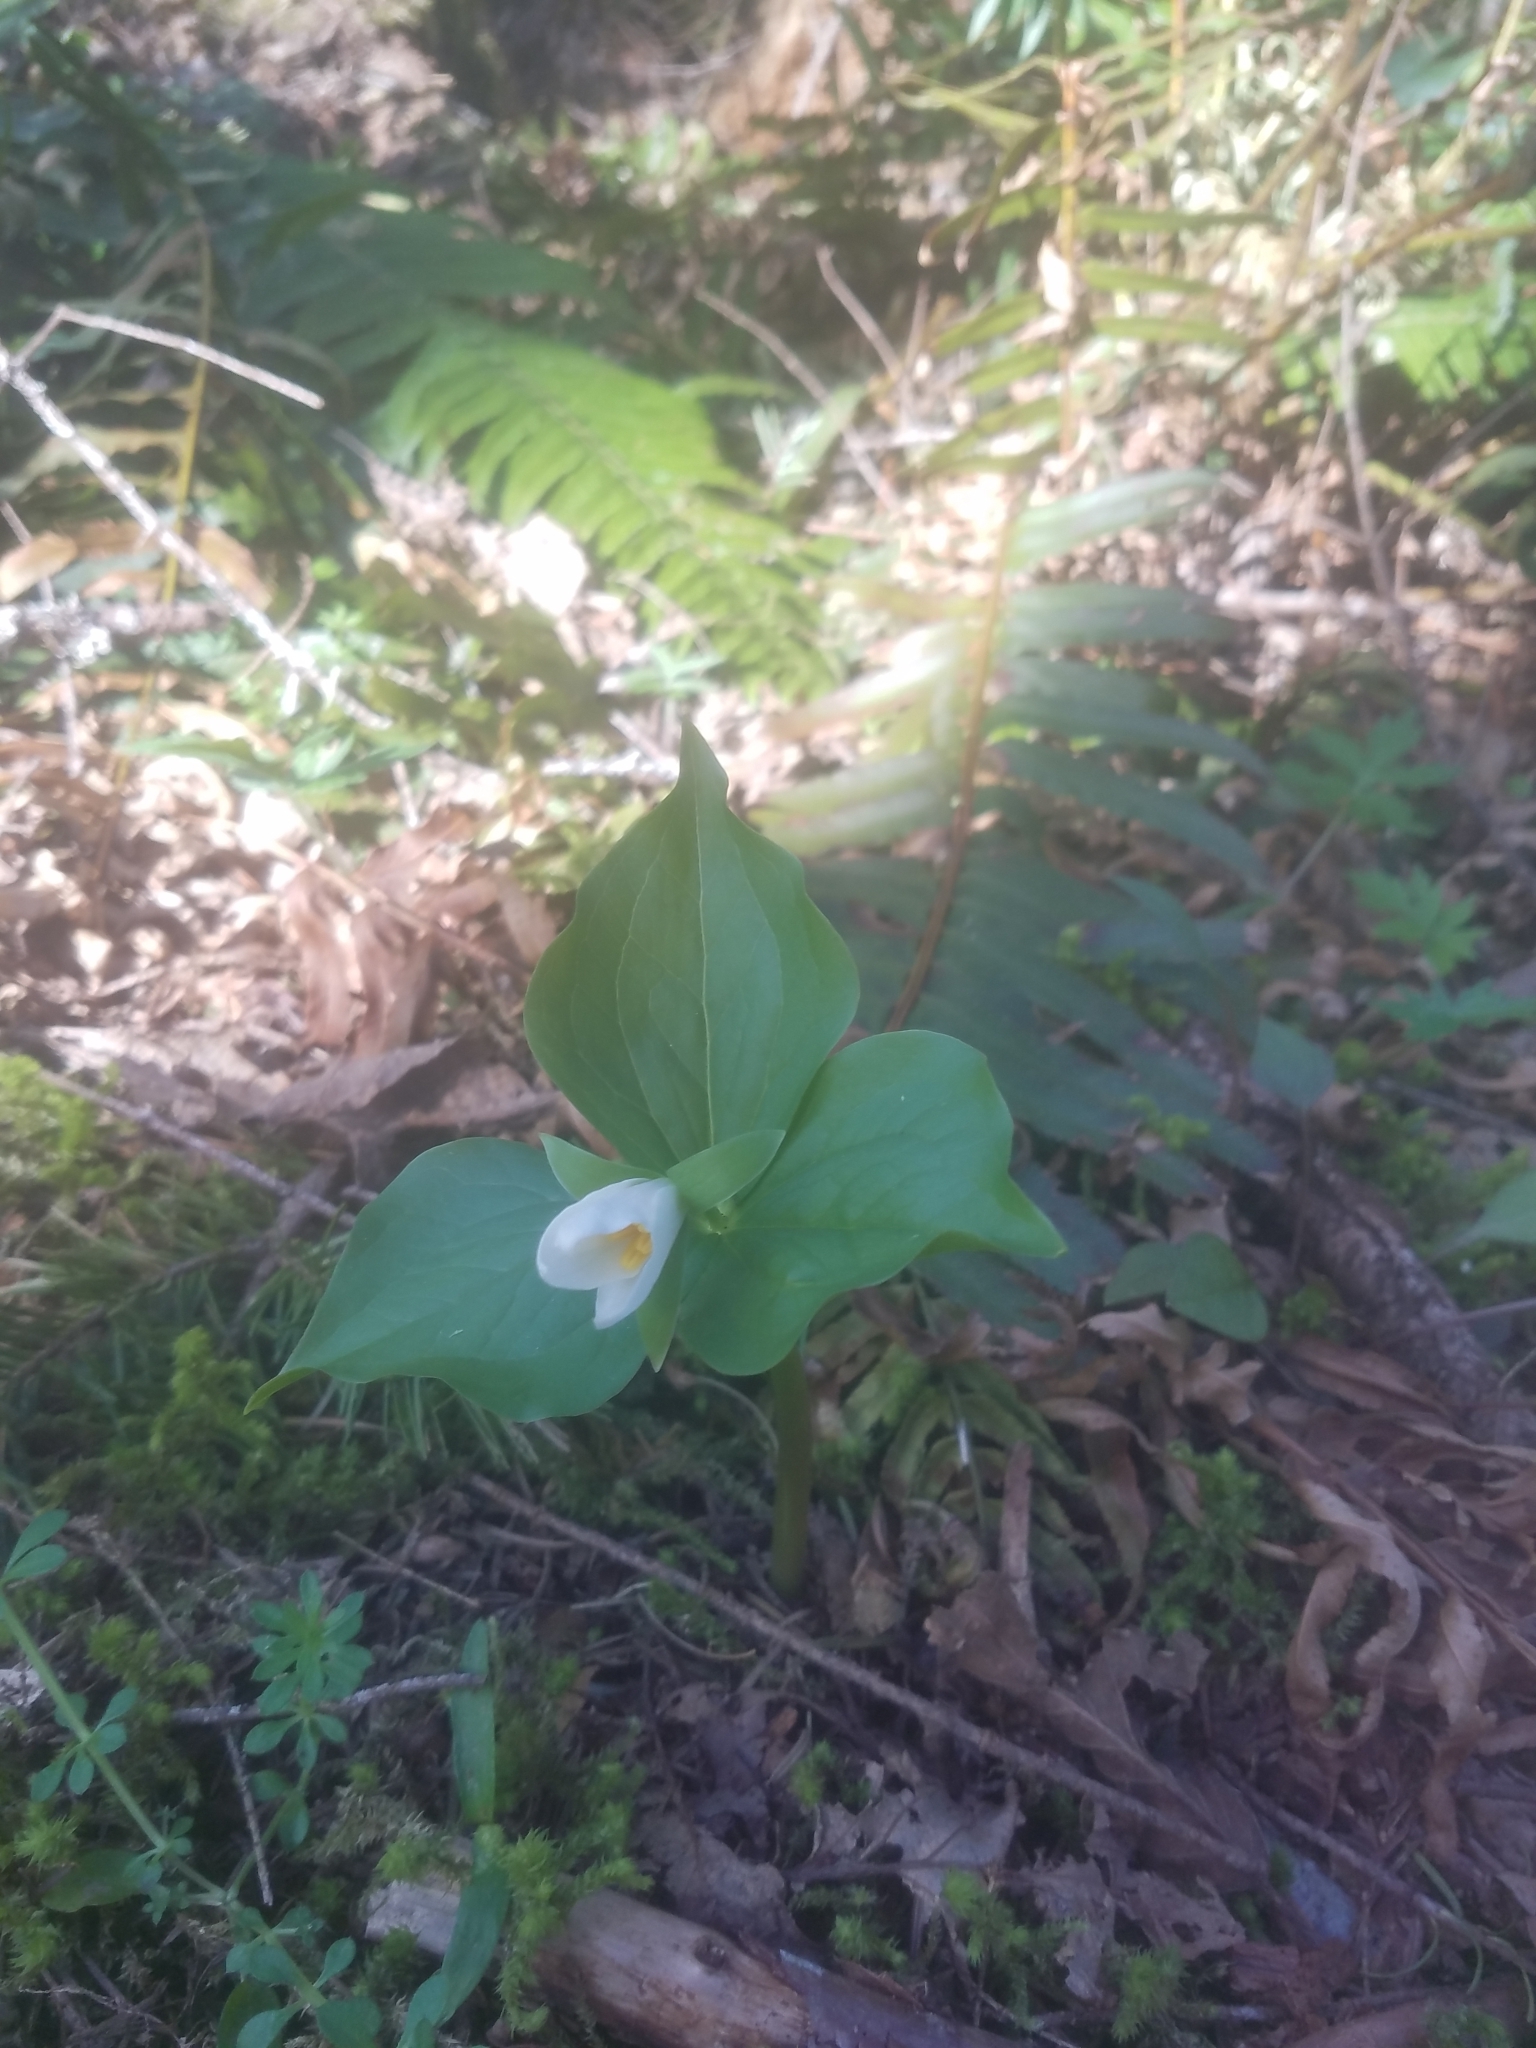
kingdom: Plantae
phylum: Tracheophyta
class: Liliopsida
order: Liliales
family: Melanthiaceae
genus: Trillium
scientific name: Trillium ovatum
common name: Pacific trillium
